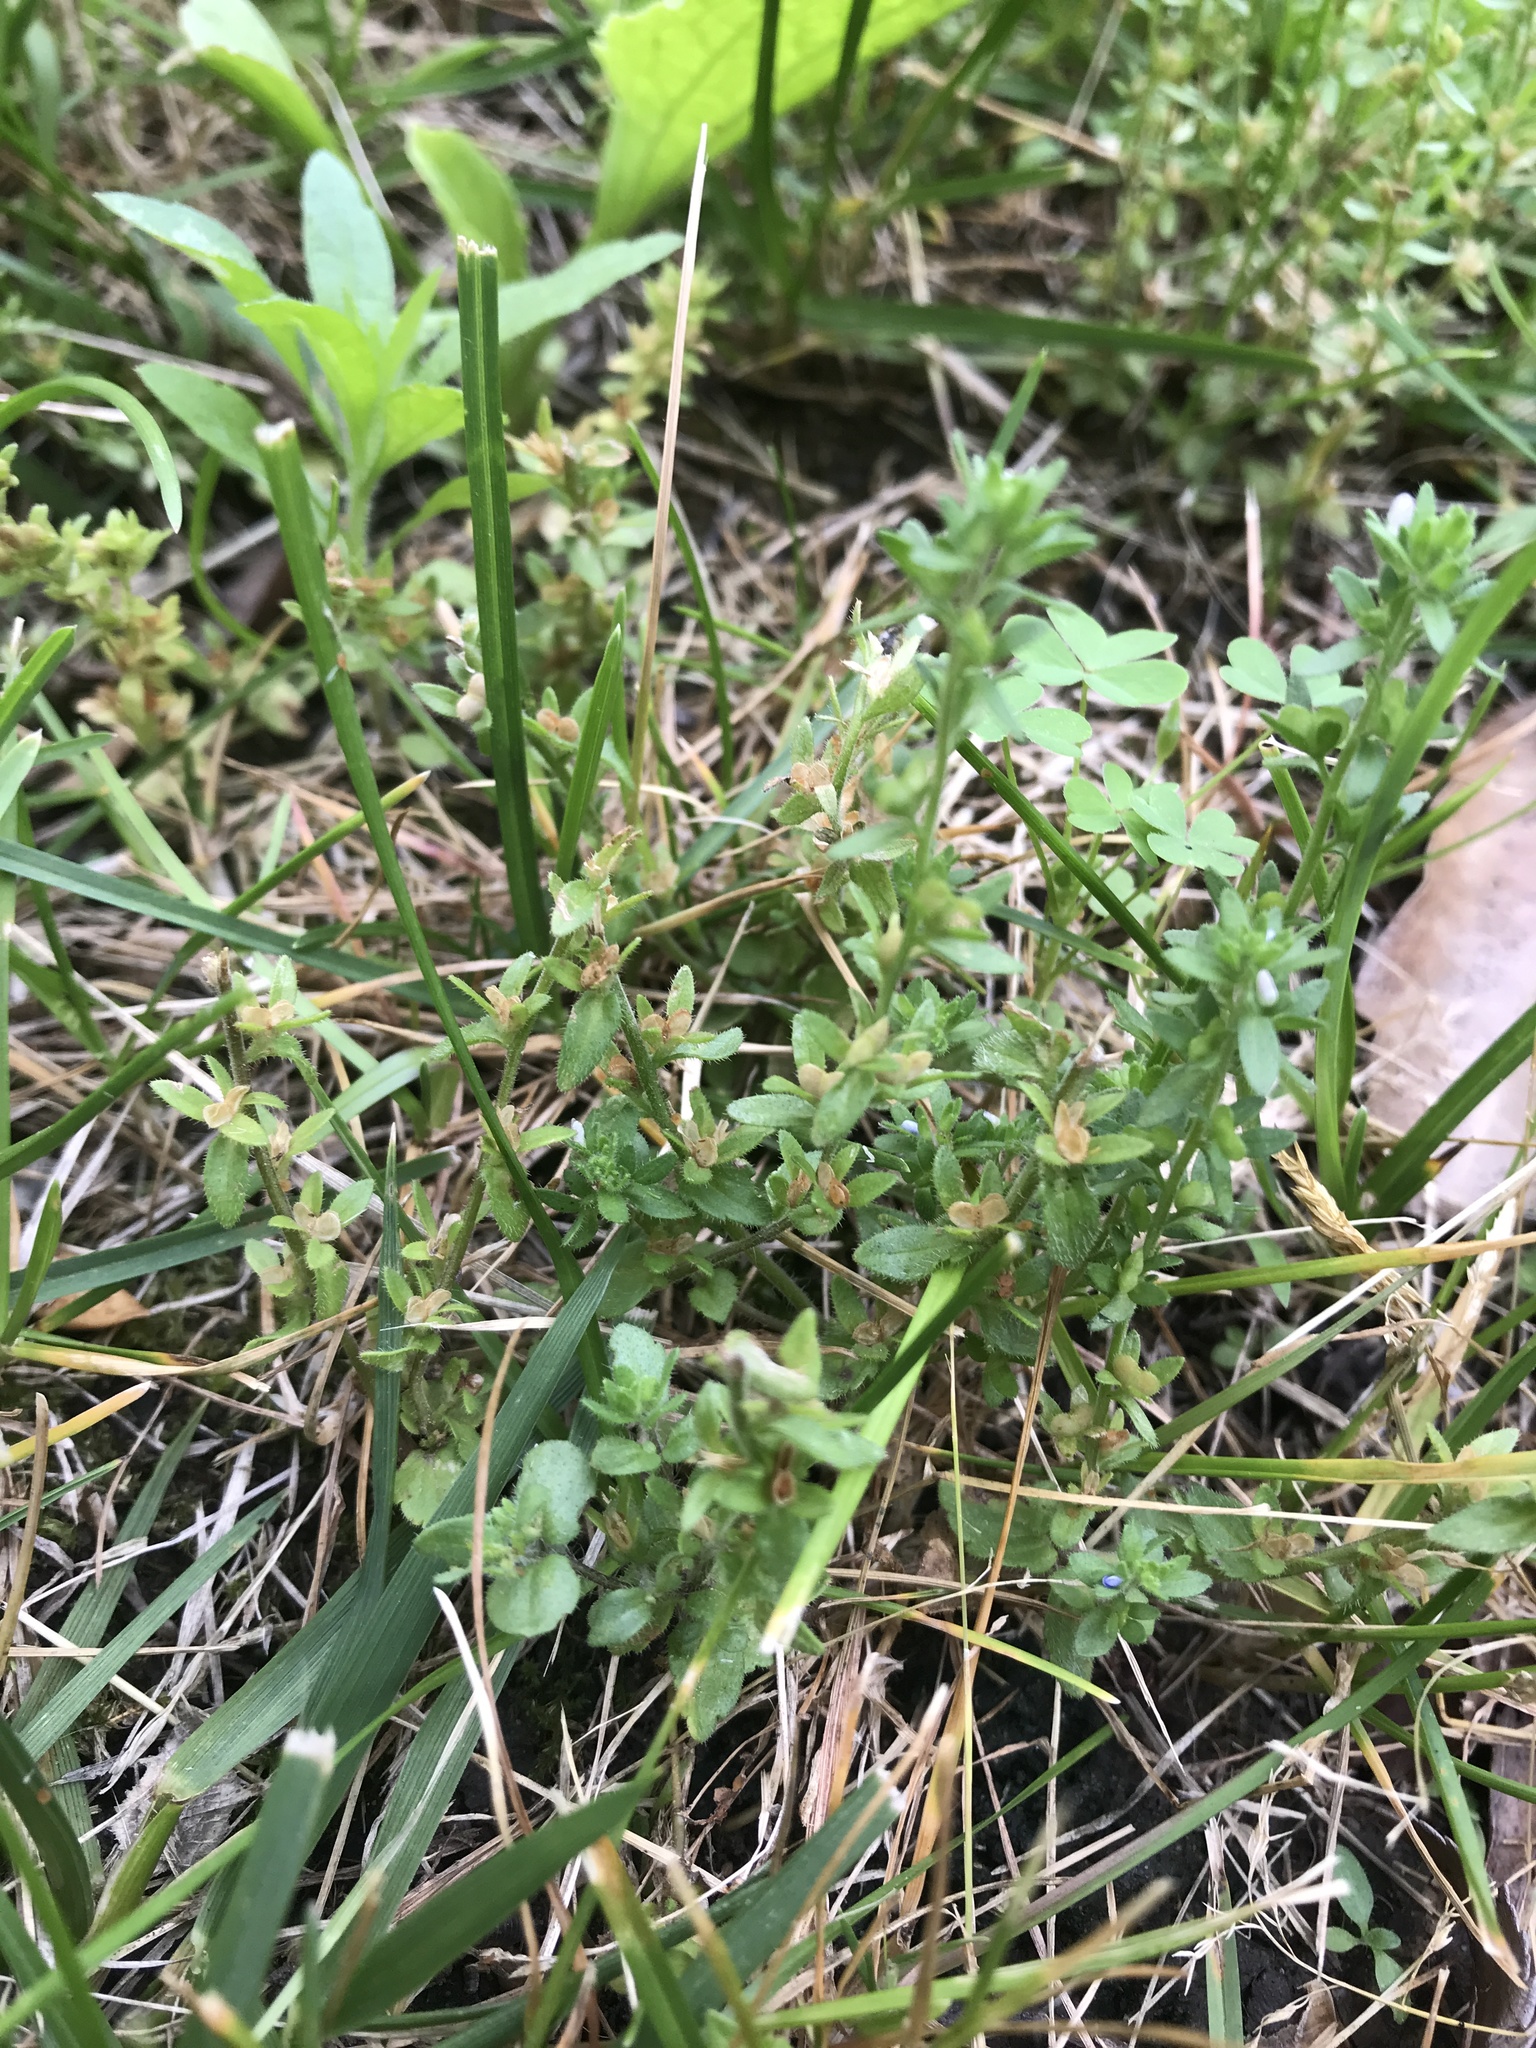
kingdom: Plantae
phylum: Tracheophyta
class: Magnoliopsida
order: Lamiales
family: Plantaginaceae
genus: Veronica
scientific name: Veronica arvensis
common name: Corn speedwell
